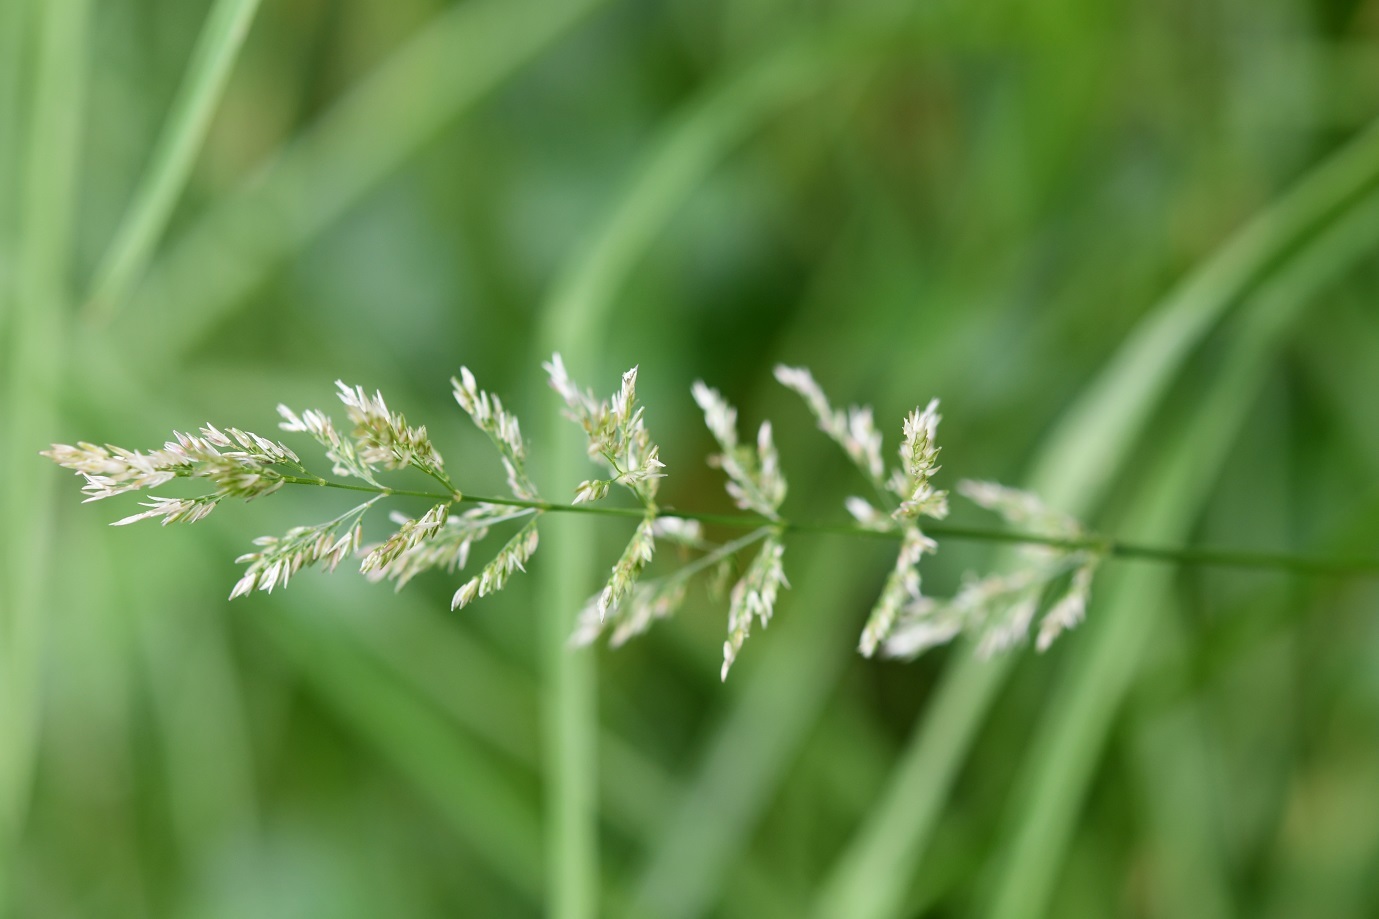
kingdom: Plantae
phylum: Tracheophyta
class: Liliopsida
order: Poales
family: Poaceae
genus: Poa
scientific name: Poa pratensis
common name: Kentucky bluegrass
